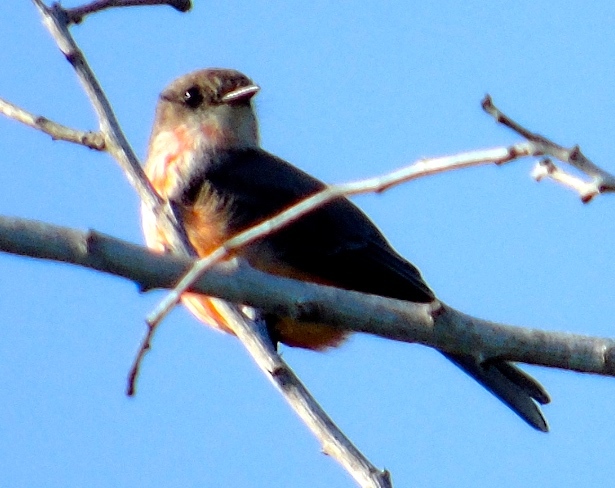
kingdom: Animalia
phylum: Chordata
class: Aves
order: Passeriformes
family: Tyrannidae
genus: Pyrocephalus
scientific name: Pyrocephalus rubinus
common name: Vermilion flycatcher
